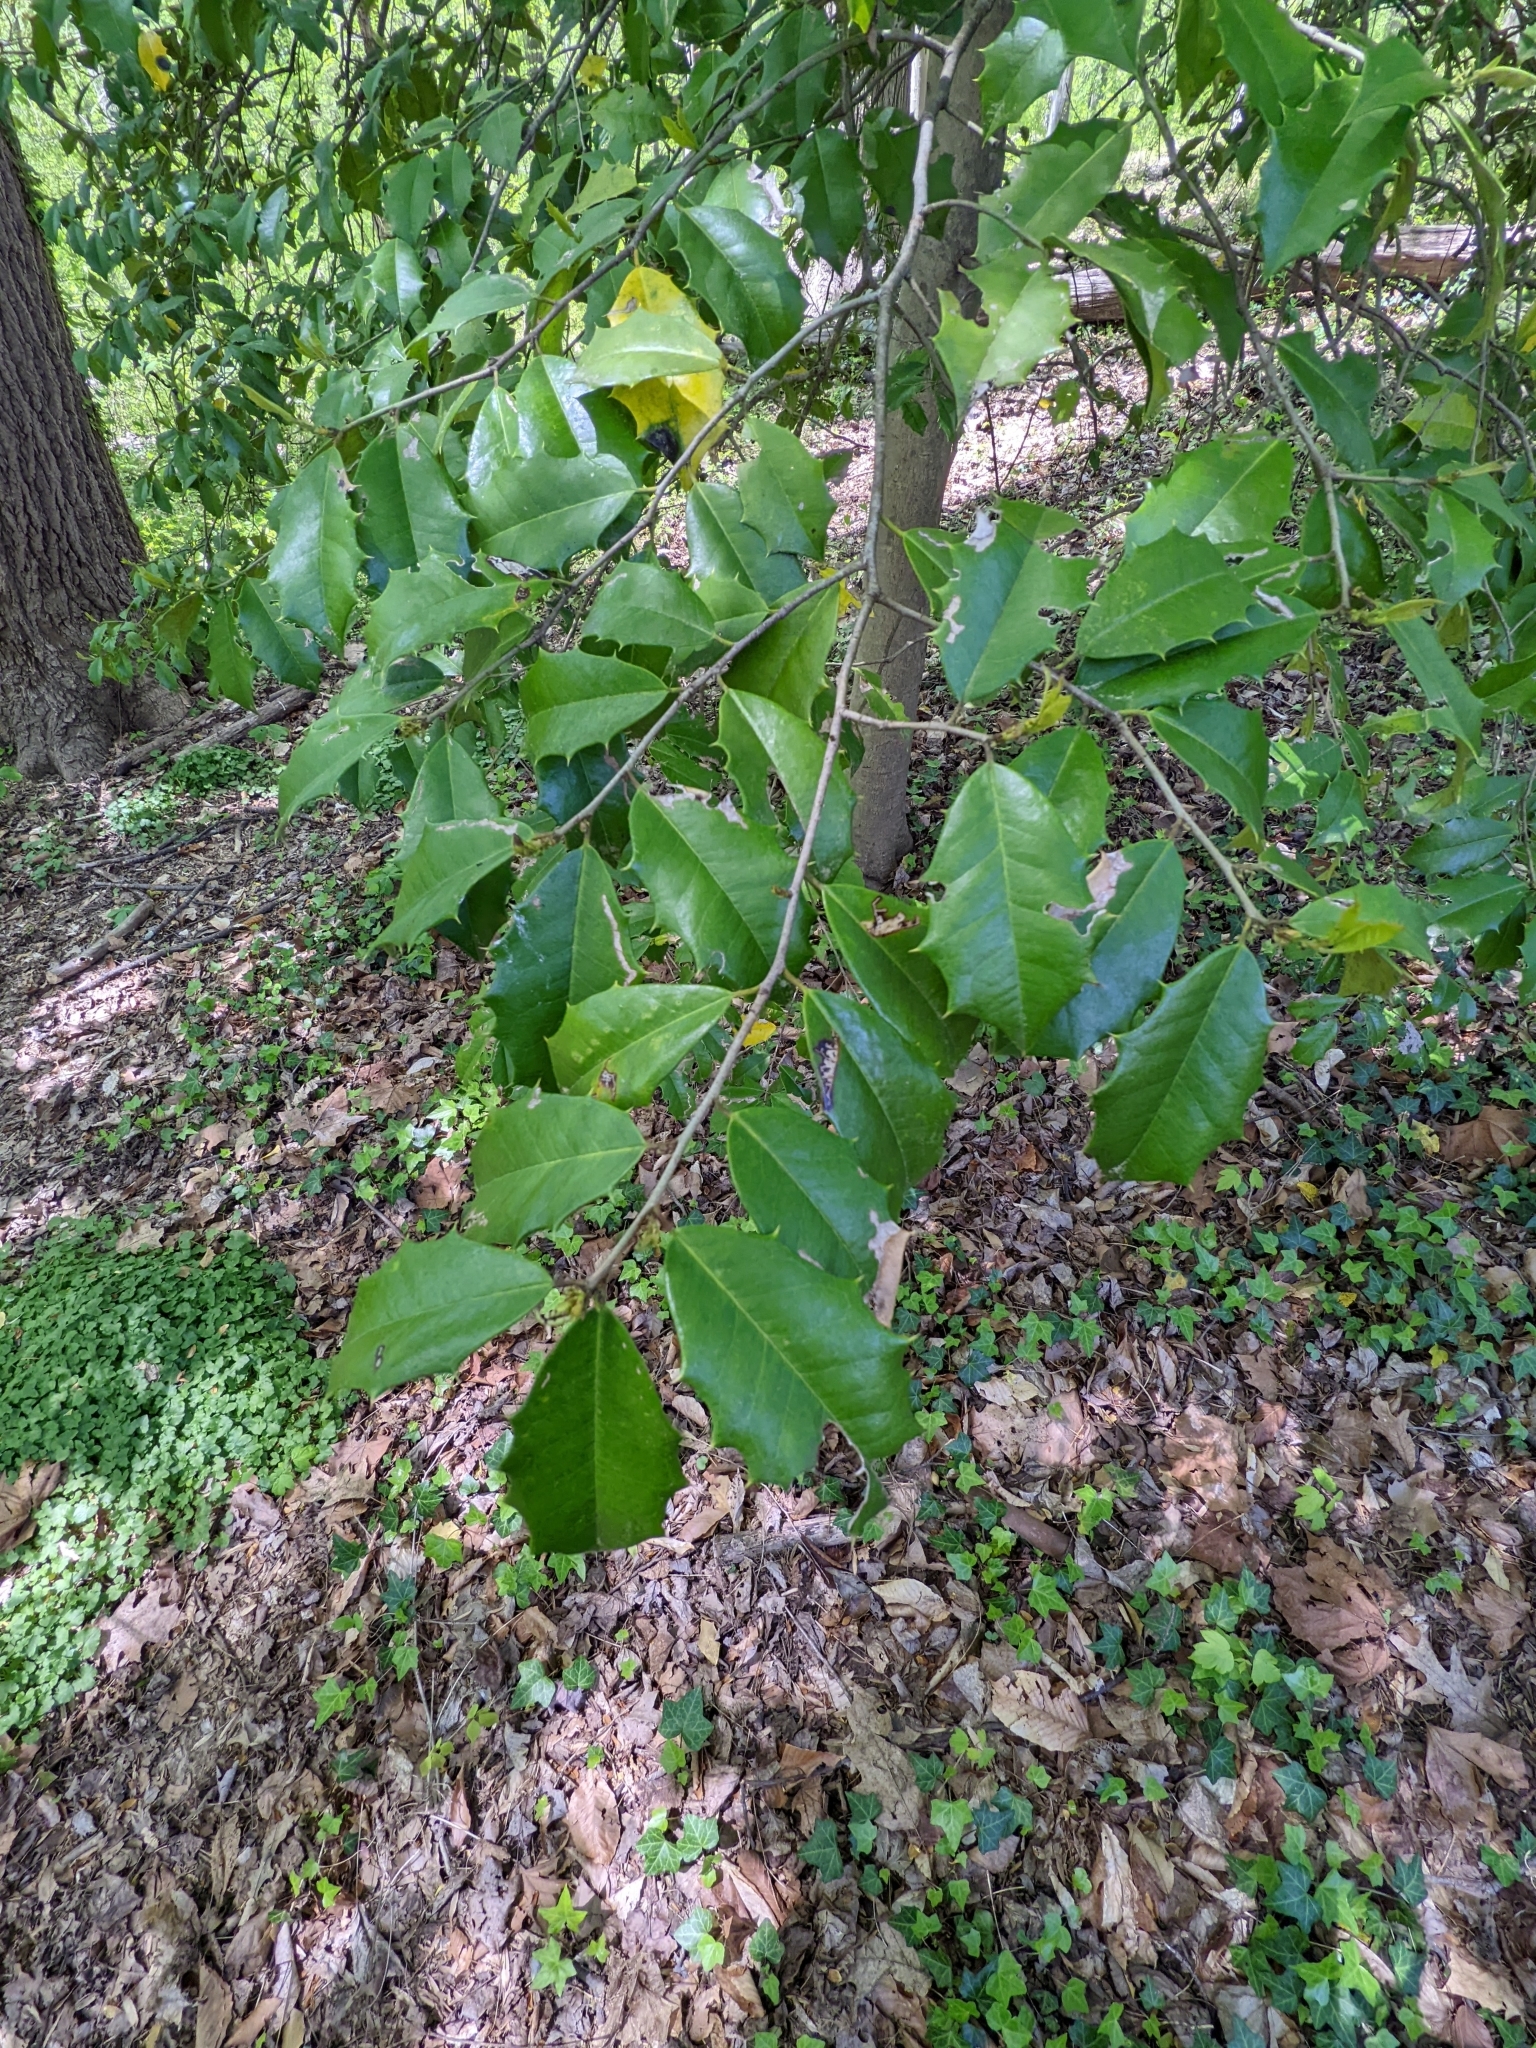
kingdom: Plantae
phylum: Tracheophyta
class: Magnoliopsida
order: Aquifoliales
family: Aquifoliaceae
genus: Ilex
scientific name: Ilex opaca
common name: American holly
